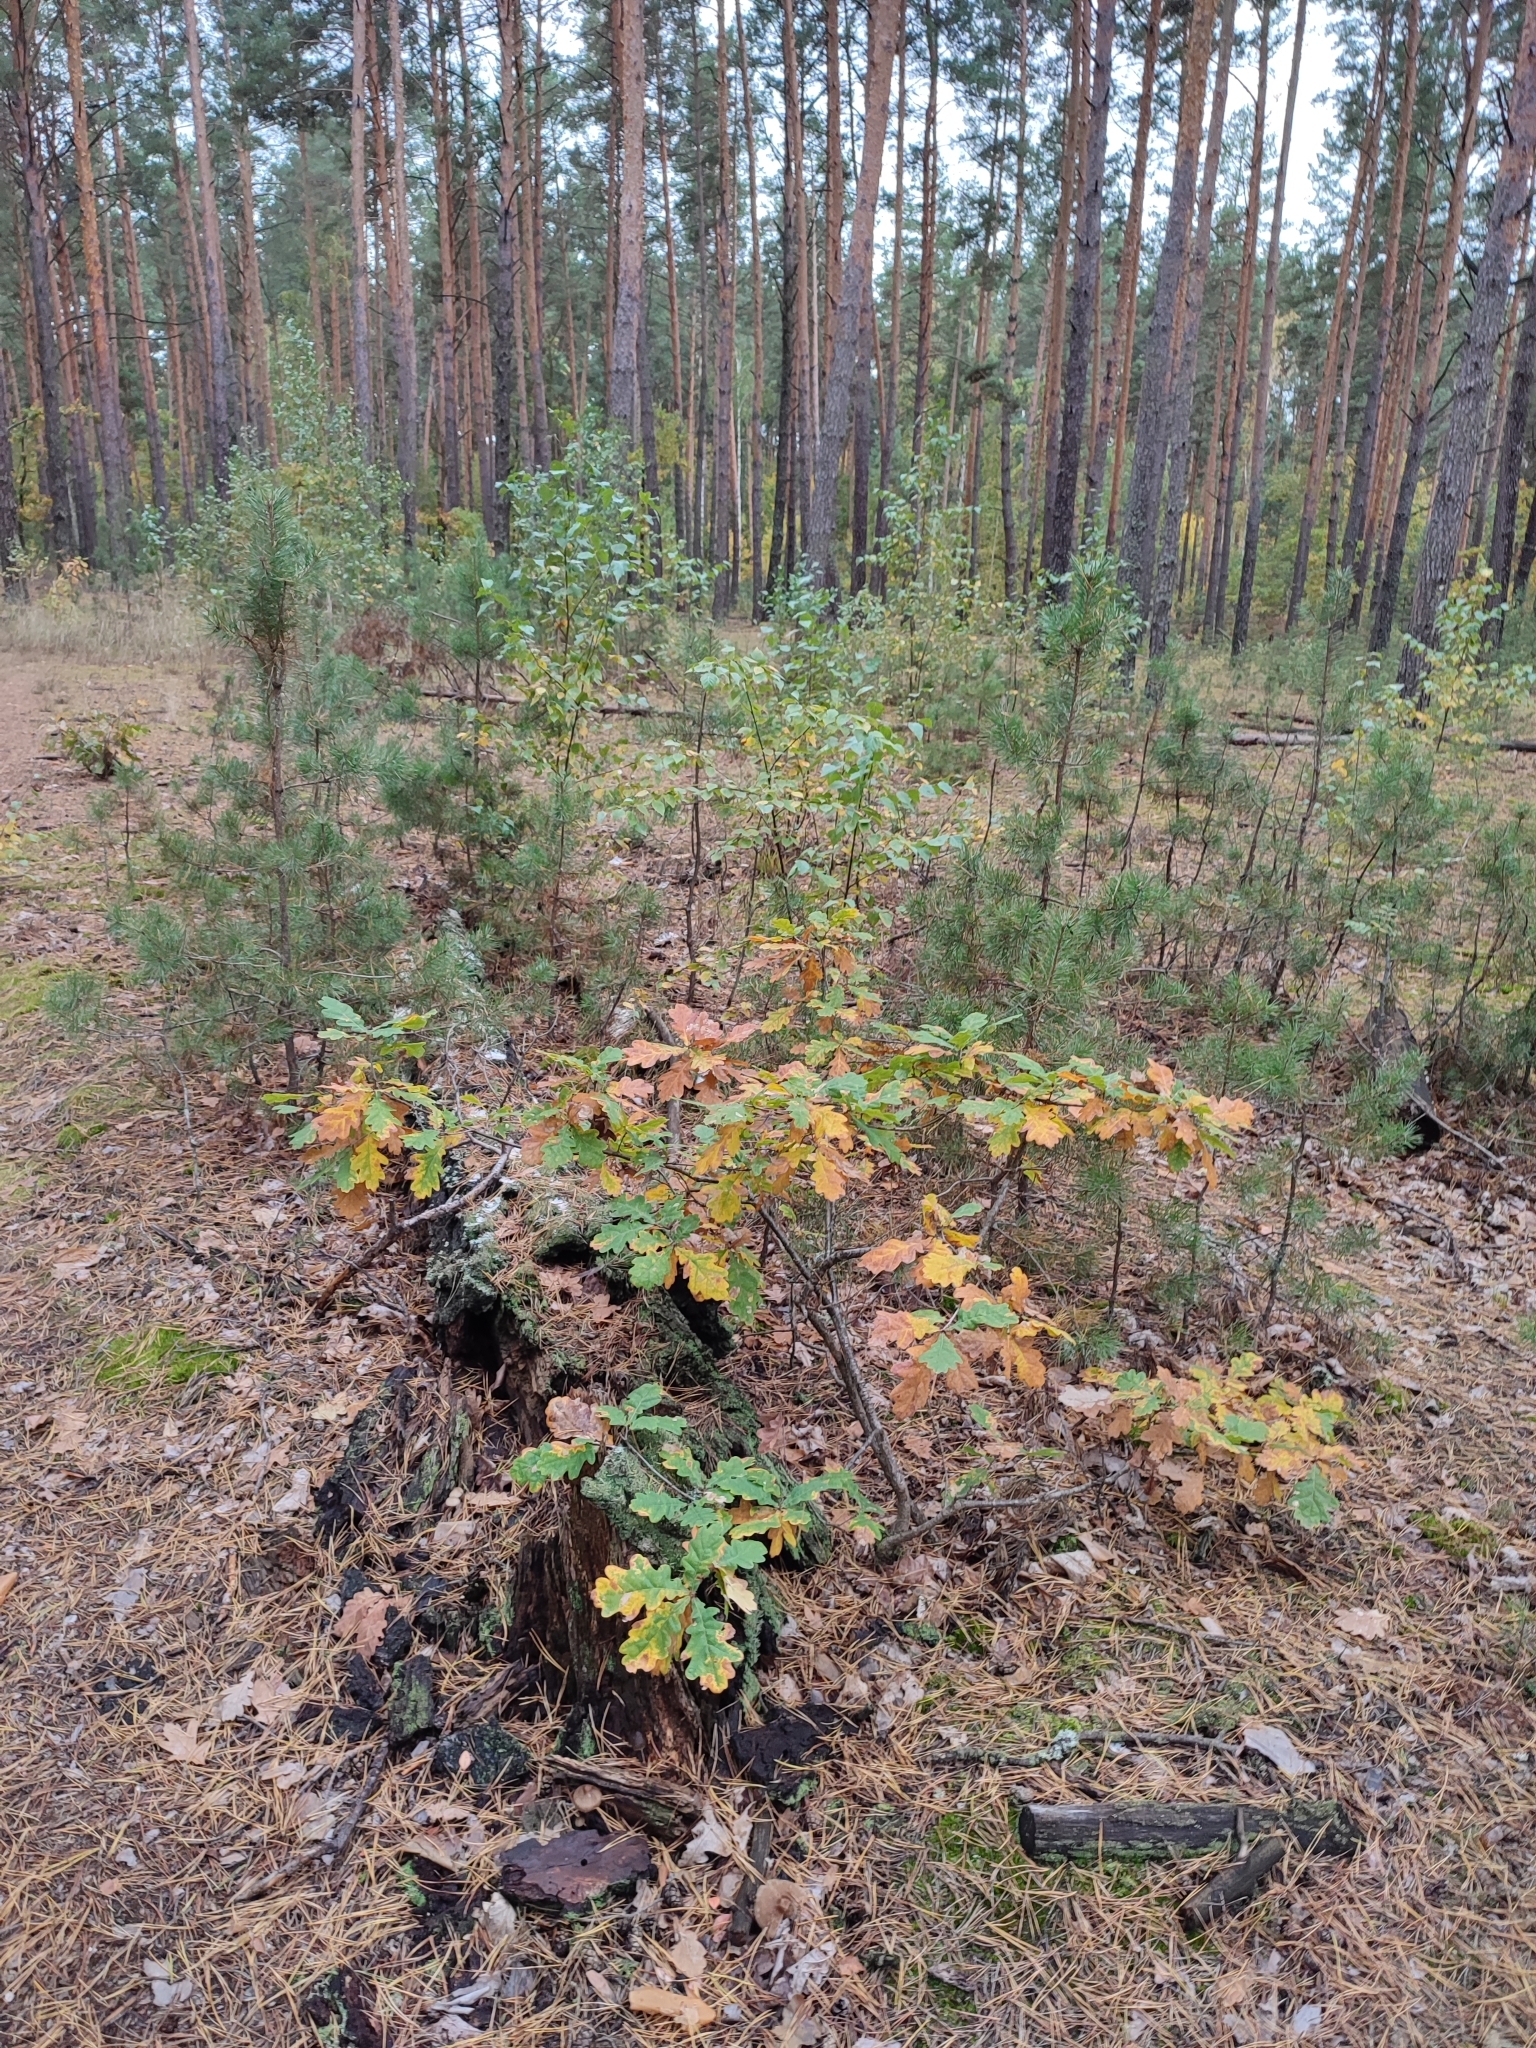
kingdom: Plantae
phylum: Tracheophyta
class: Magnoliopsida
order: Fagales
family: Fagaceae
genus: Quercus
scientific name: Quercus robur
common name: Pedunculate oak
